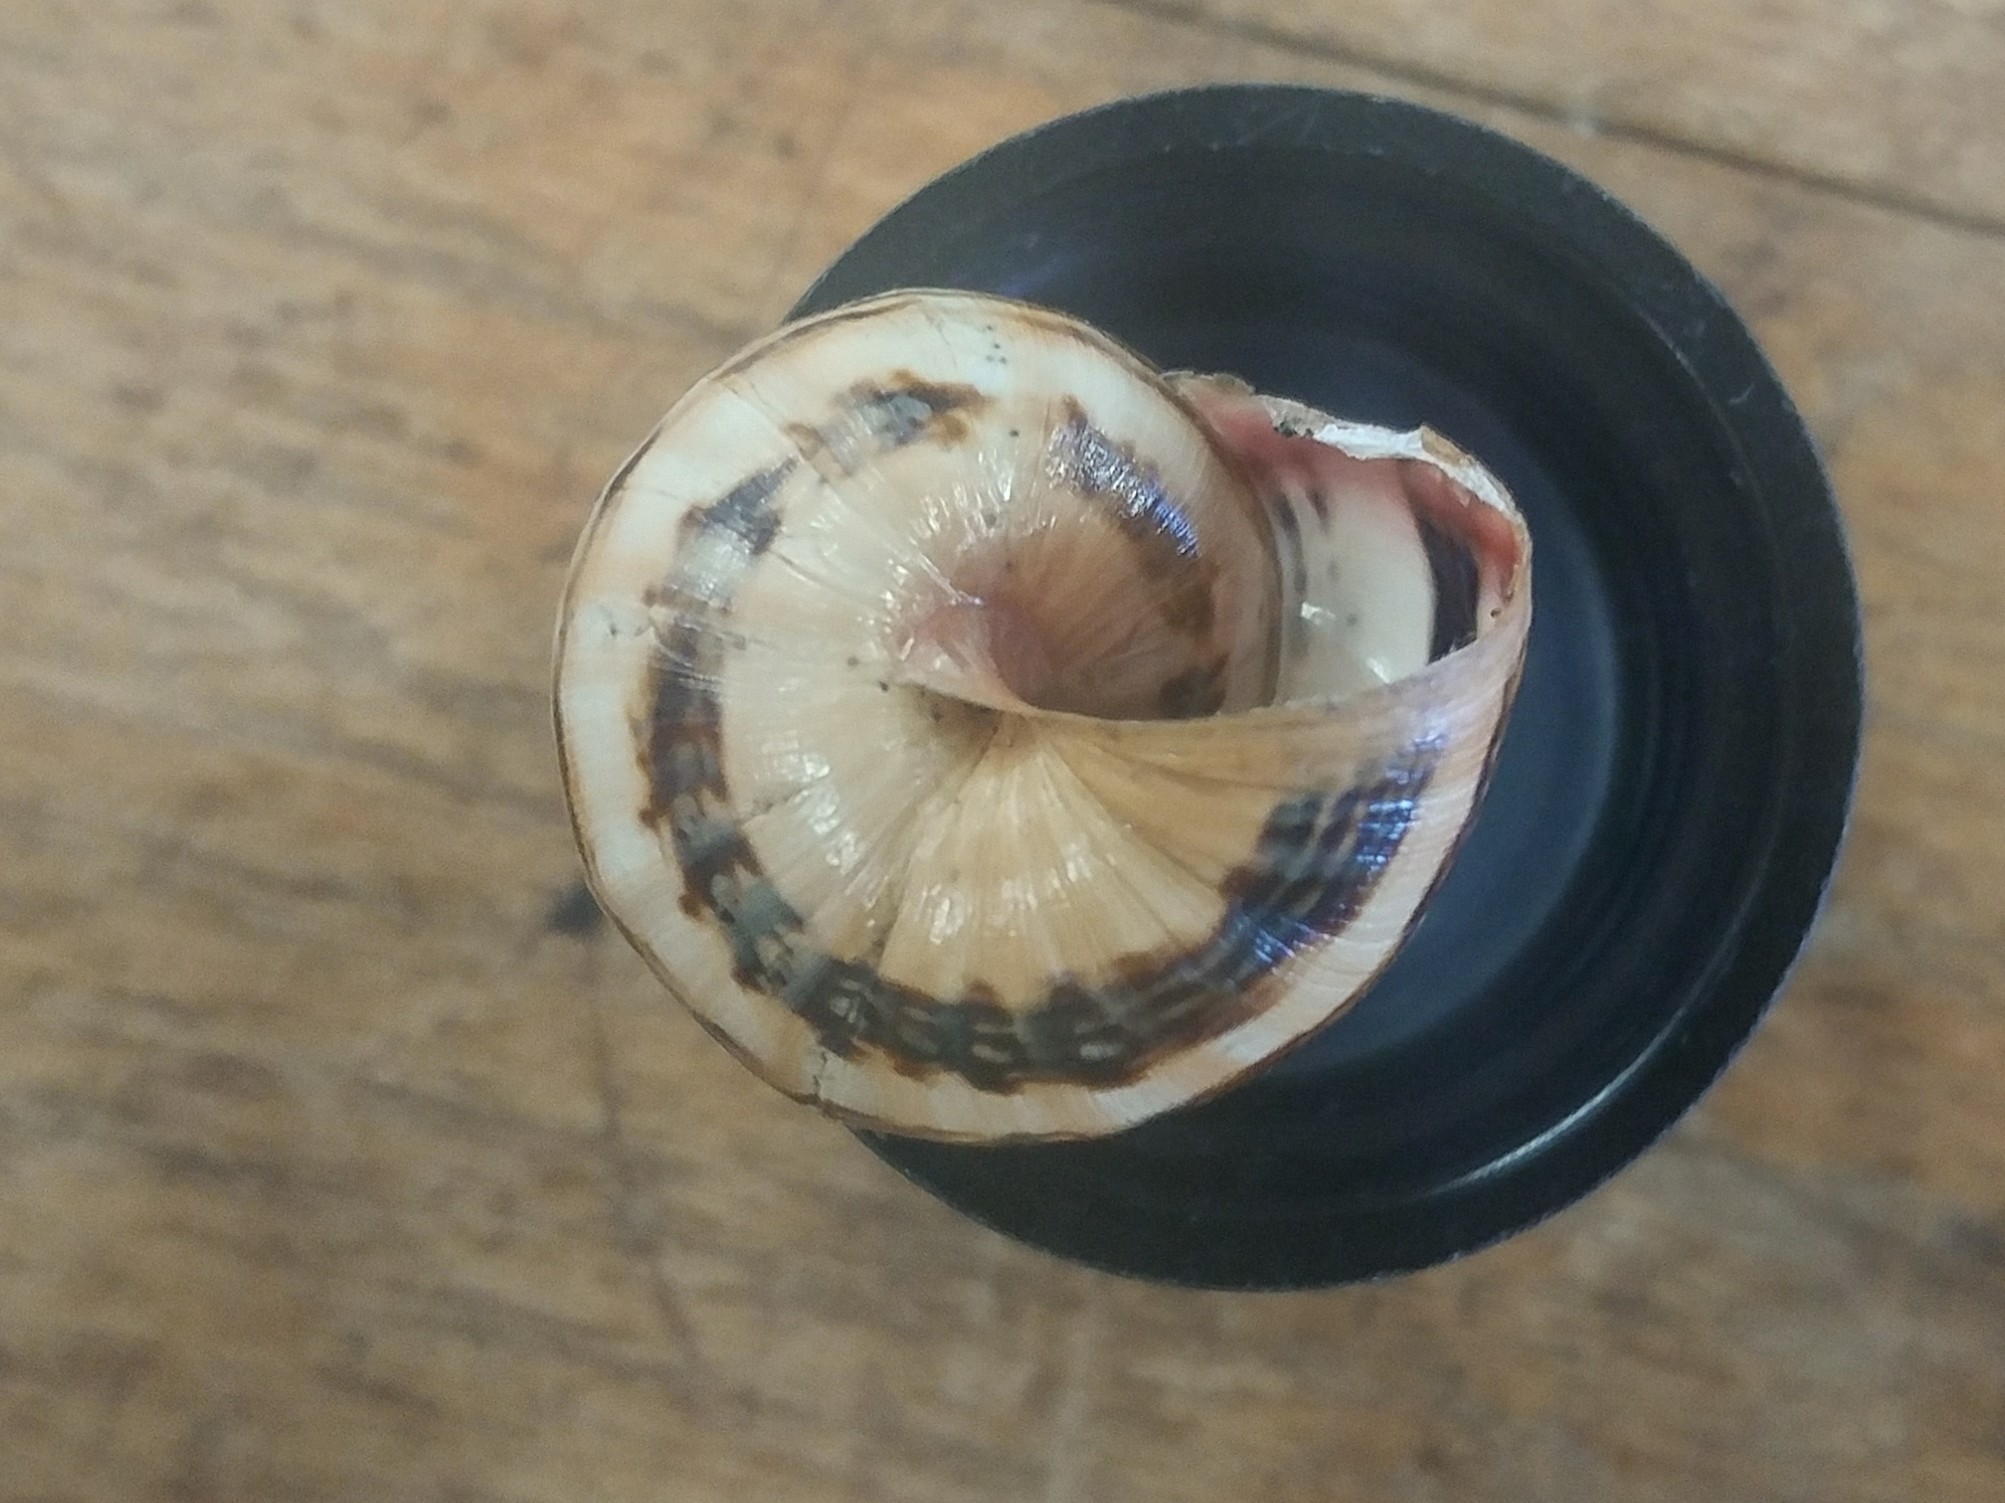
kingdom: Animalia
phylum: Mollusca
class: Gastropoda
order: Stylommatophora
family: Helicidae
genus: Theba
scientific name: Theba pisana
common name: White snail
